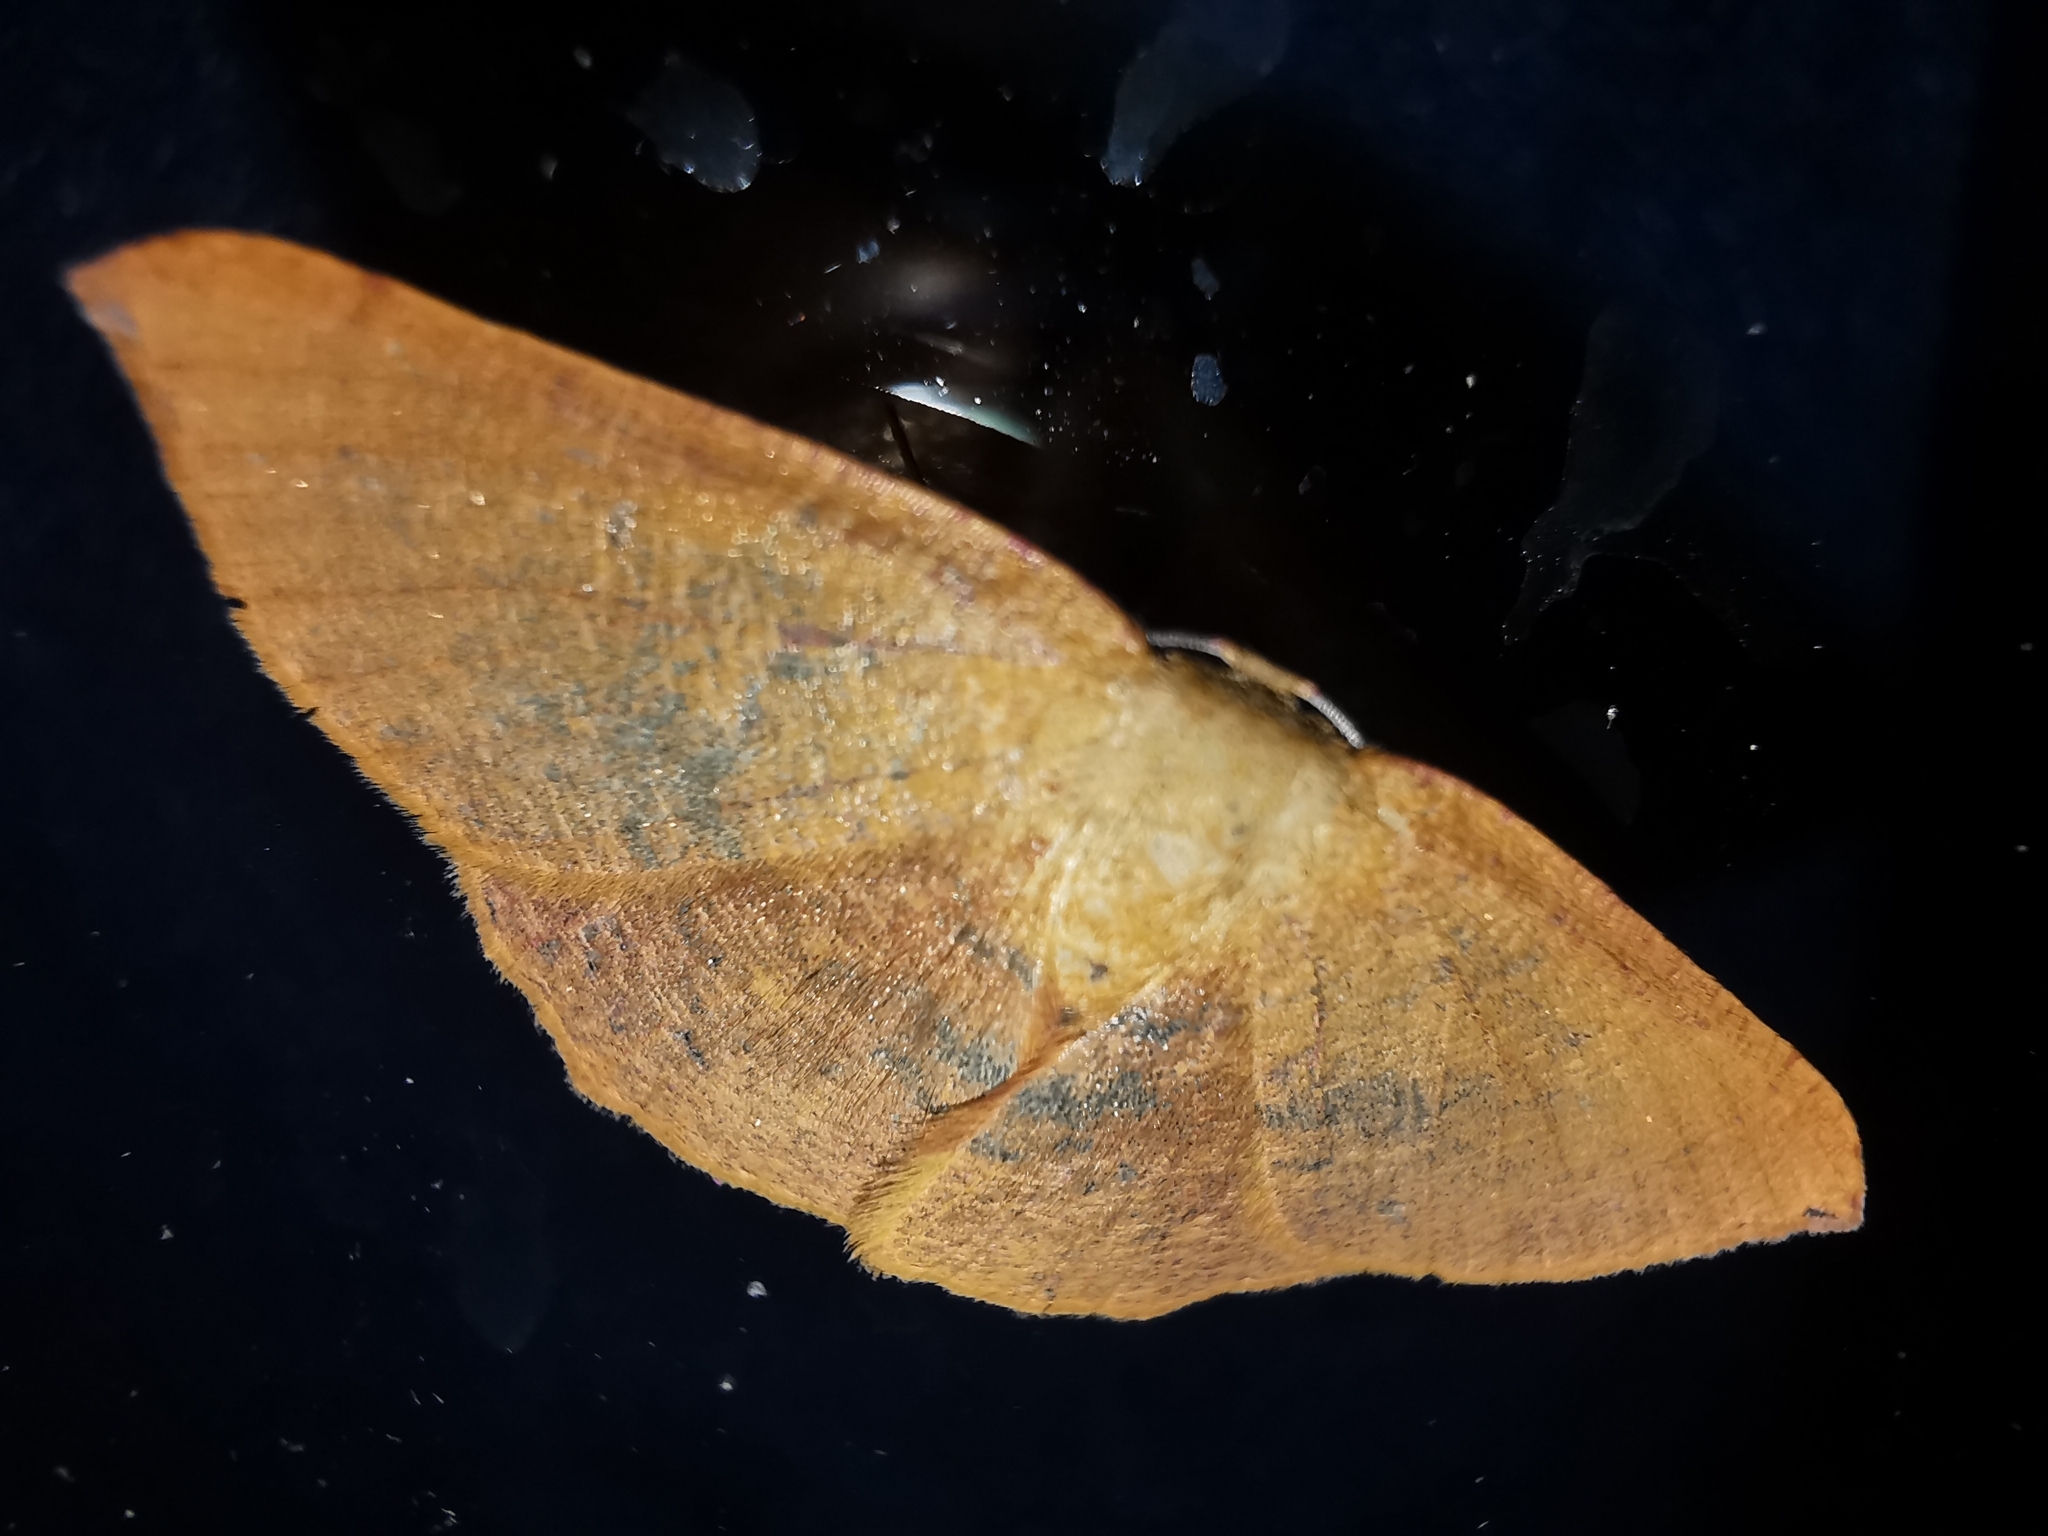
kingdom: Animalia
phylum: Arthropoda
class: Insecta
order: Lepidoptera
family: Geometridae
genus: Cyclophora
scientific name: Cyclophora puppillaria
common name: Blair's mocha
